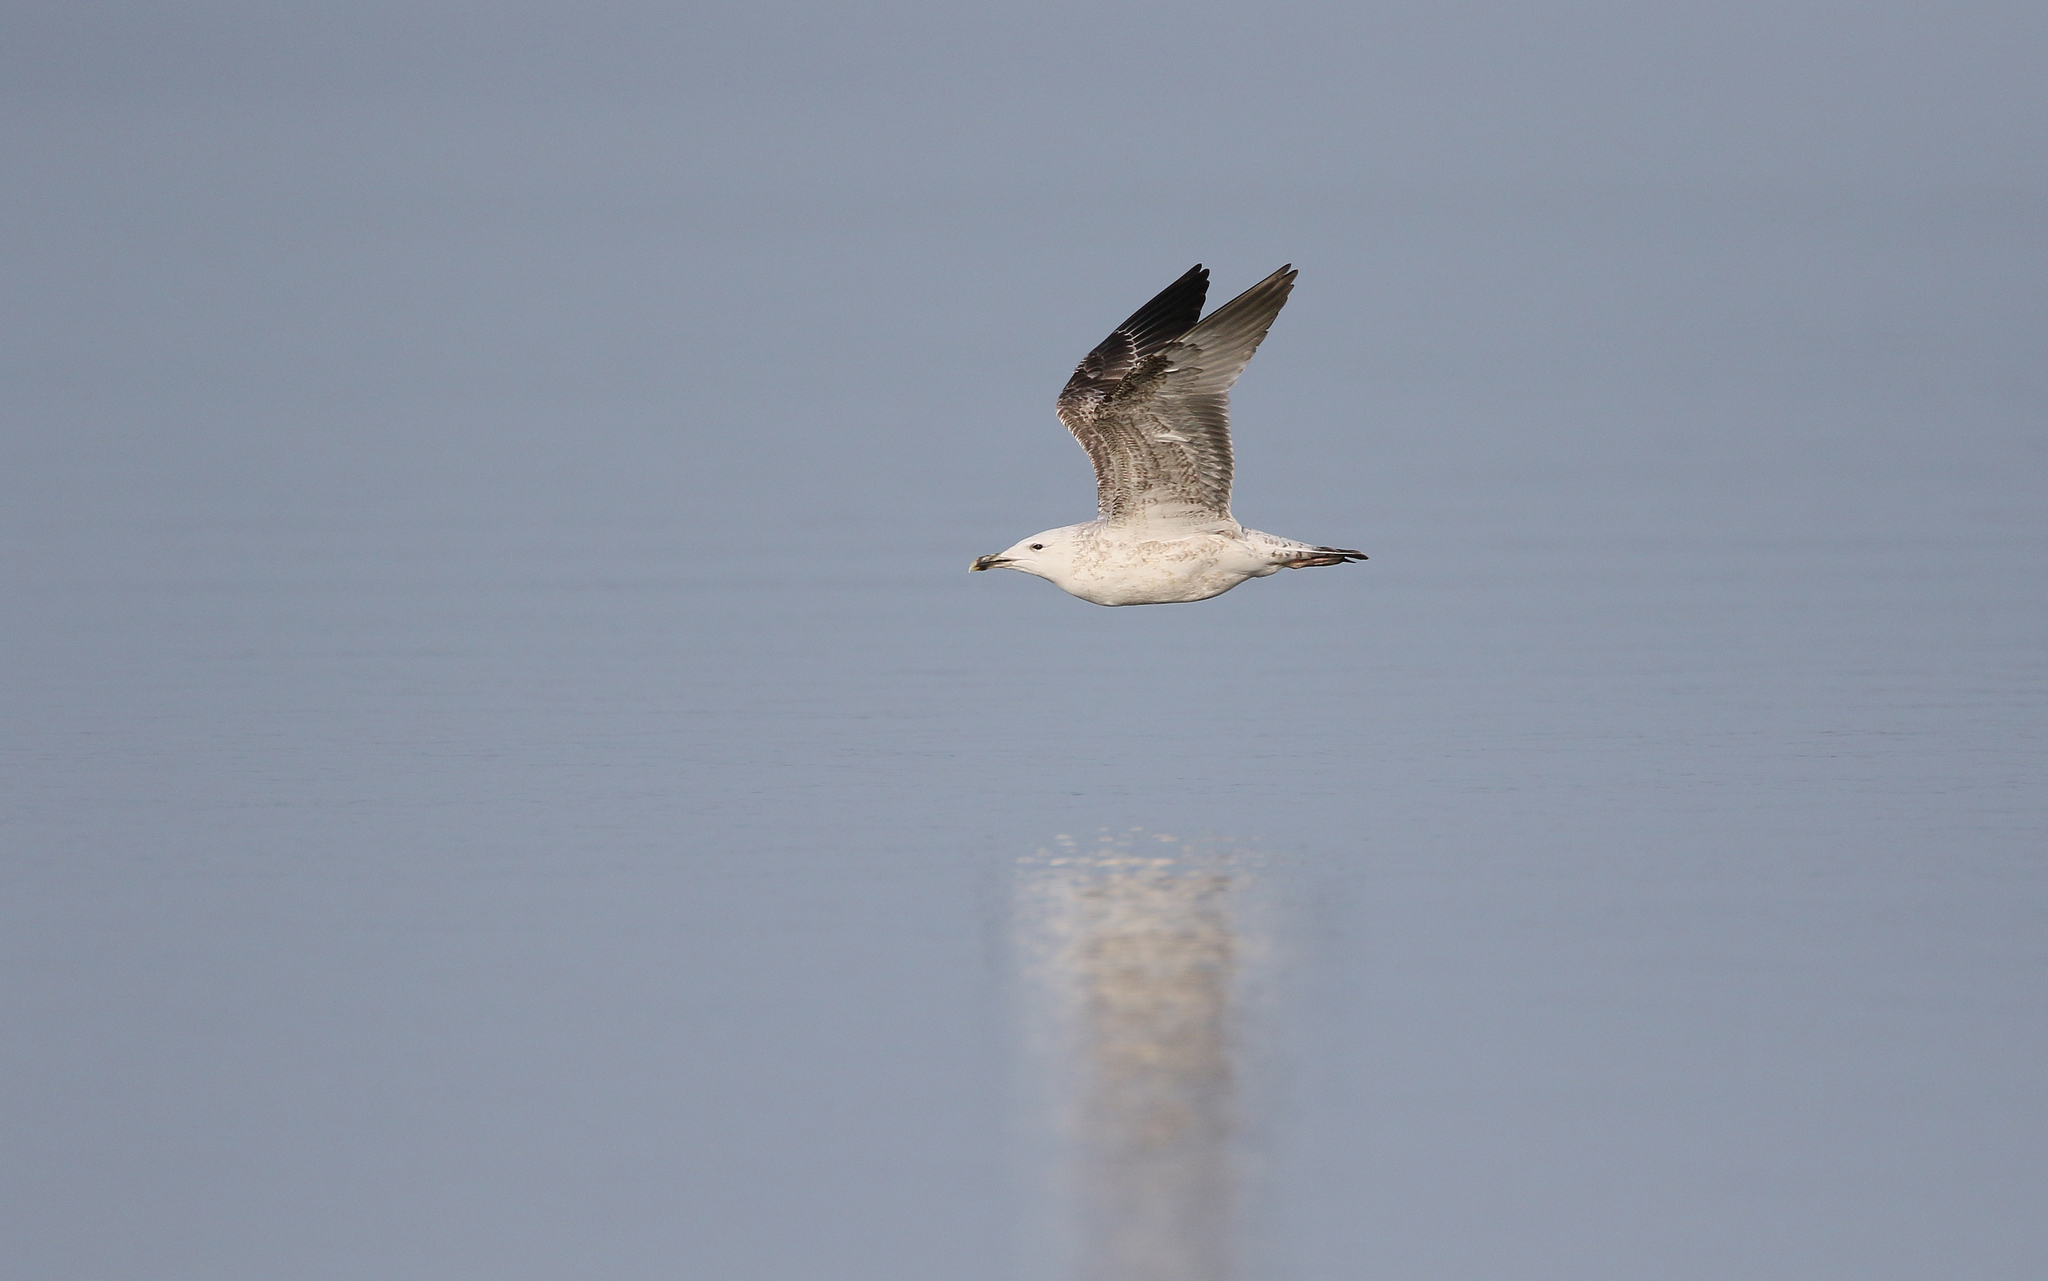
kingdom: Animalia
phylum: Chordata
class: Aves
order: Charadriiformes
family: Laridae
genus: Larus
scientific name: Larus cachinnans
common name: Caspian gull
